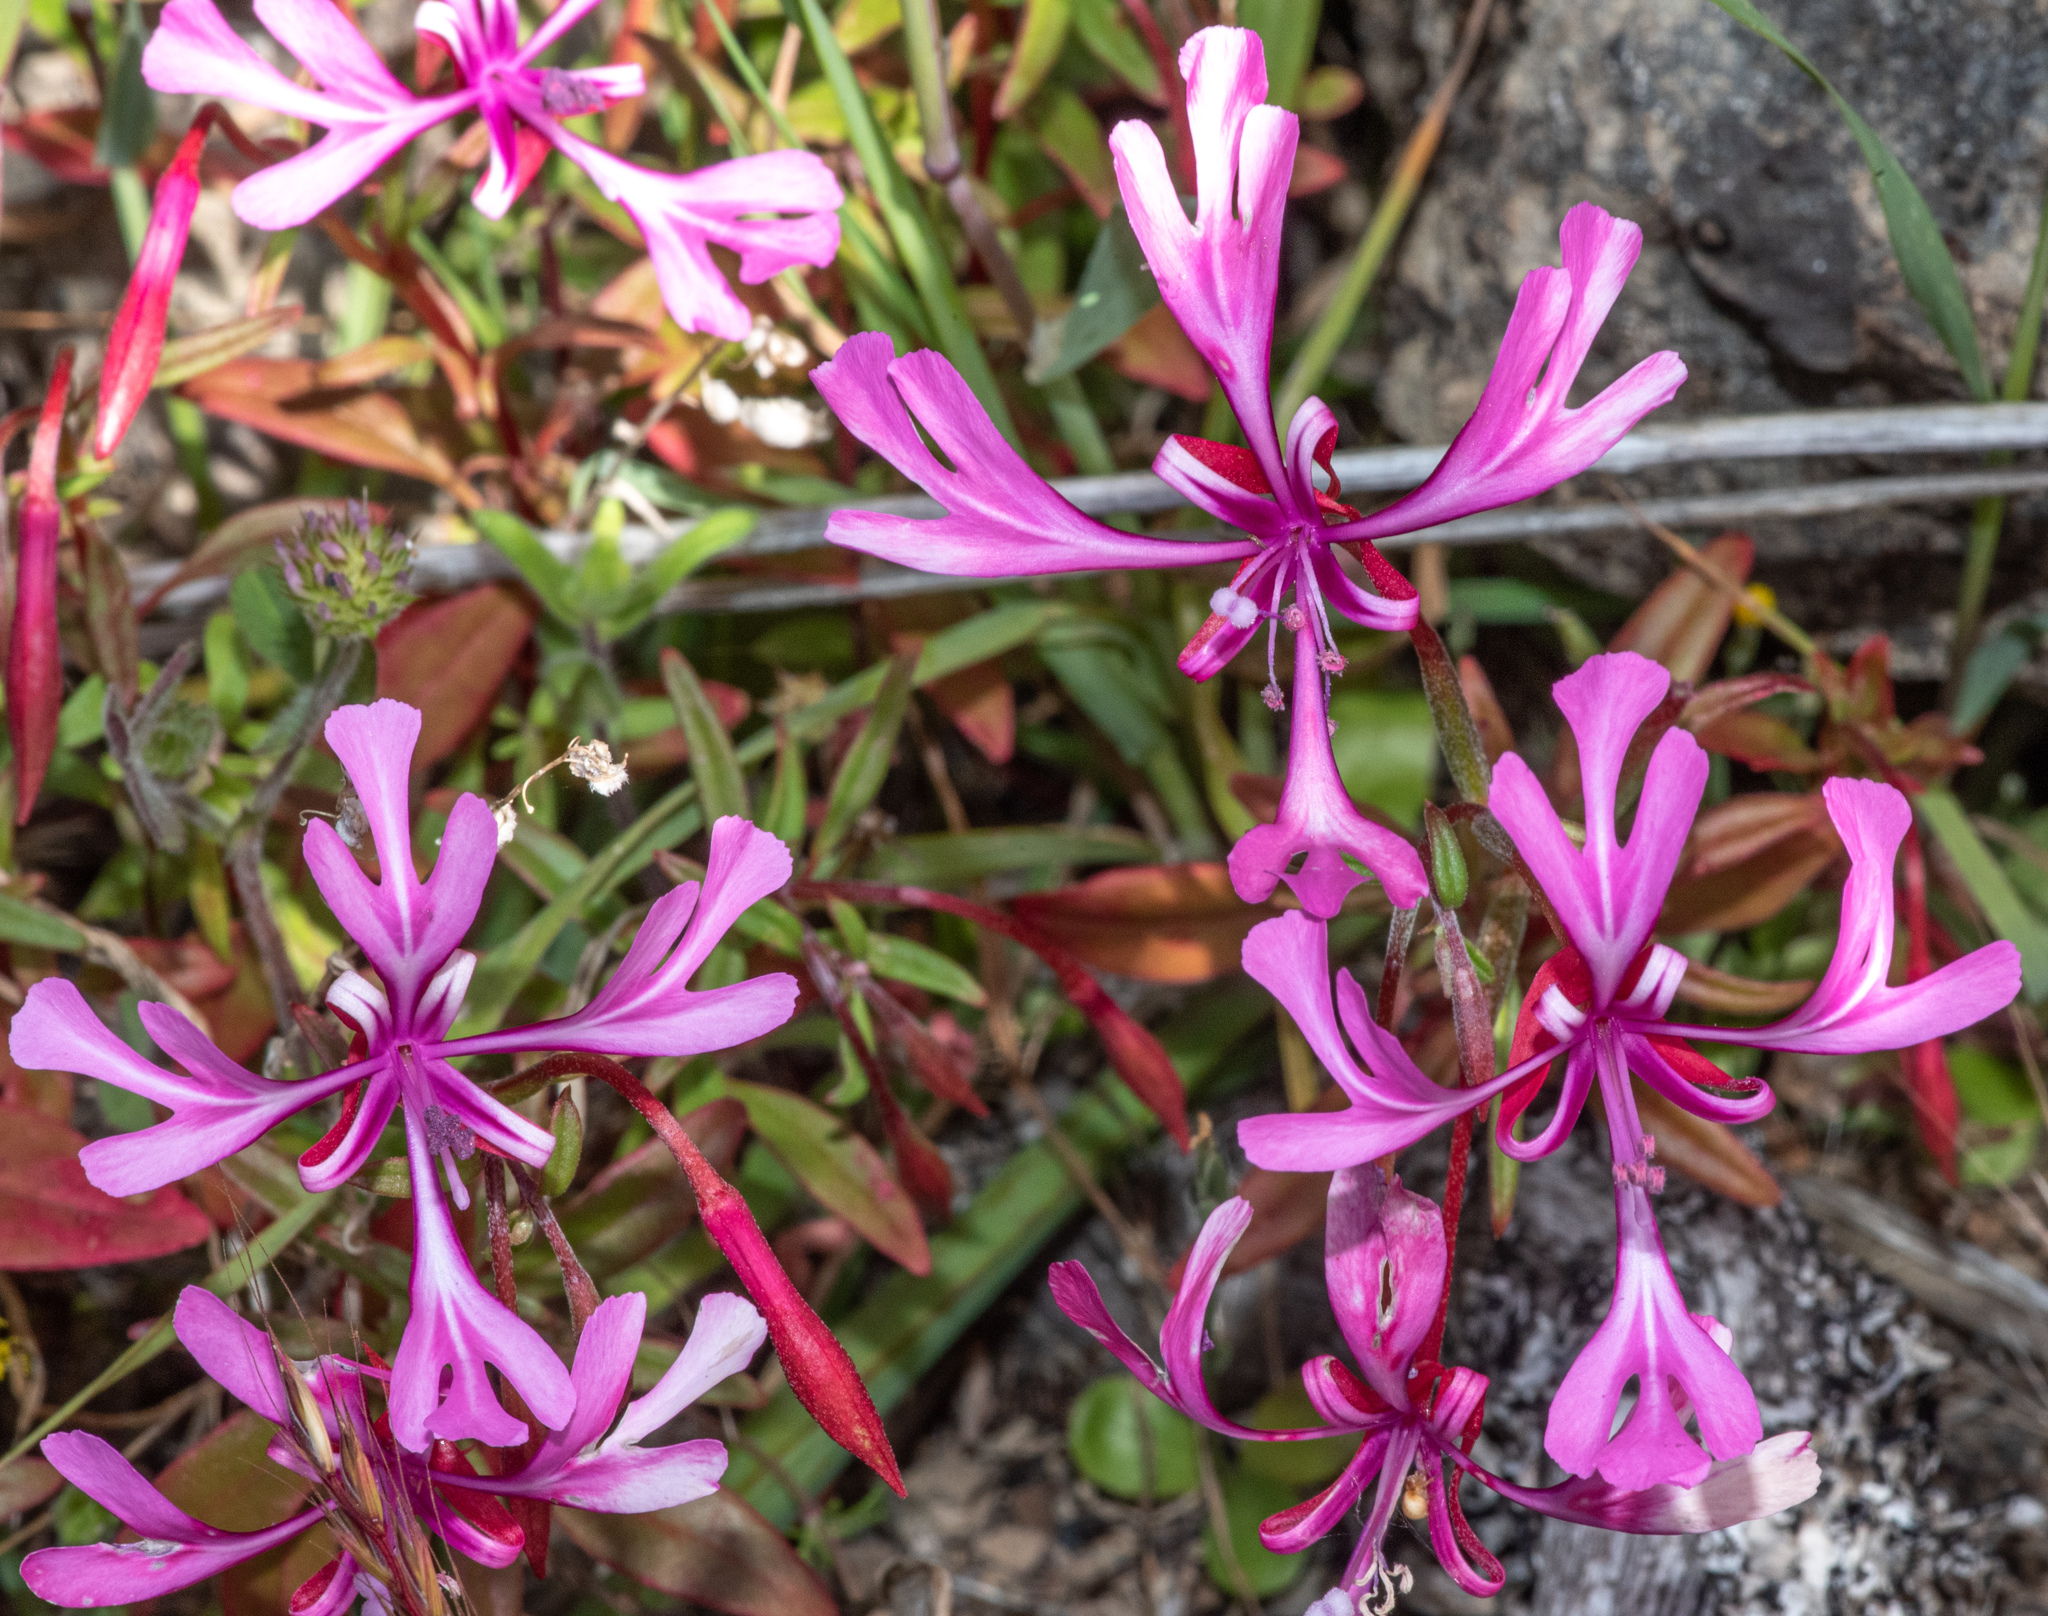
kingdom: Plantae
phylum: Tracheophyta
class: Magnoliopsida
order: Myrtales
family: Onagraceae
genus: Clarkia
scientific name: Clarkia concinna
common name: Red-ribbons
